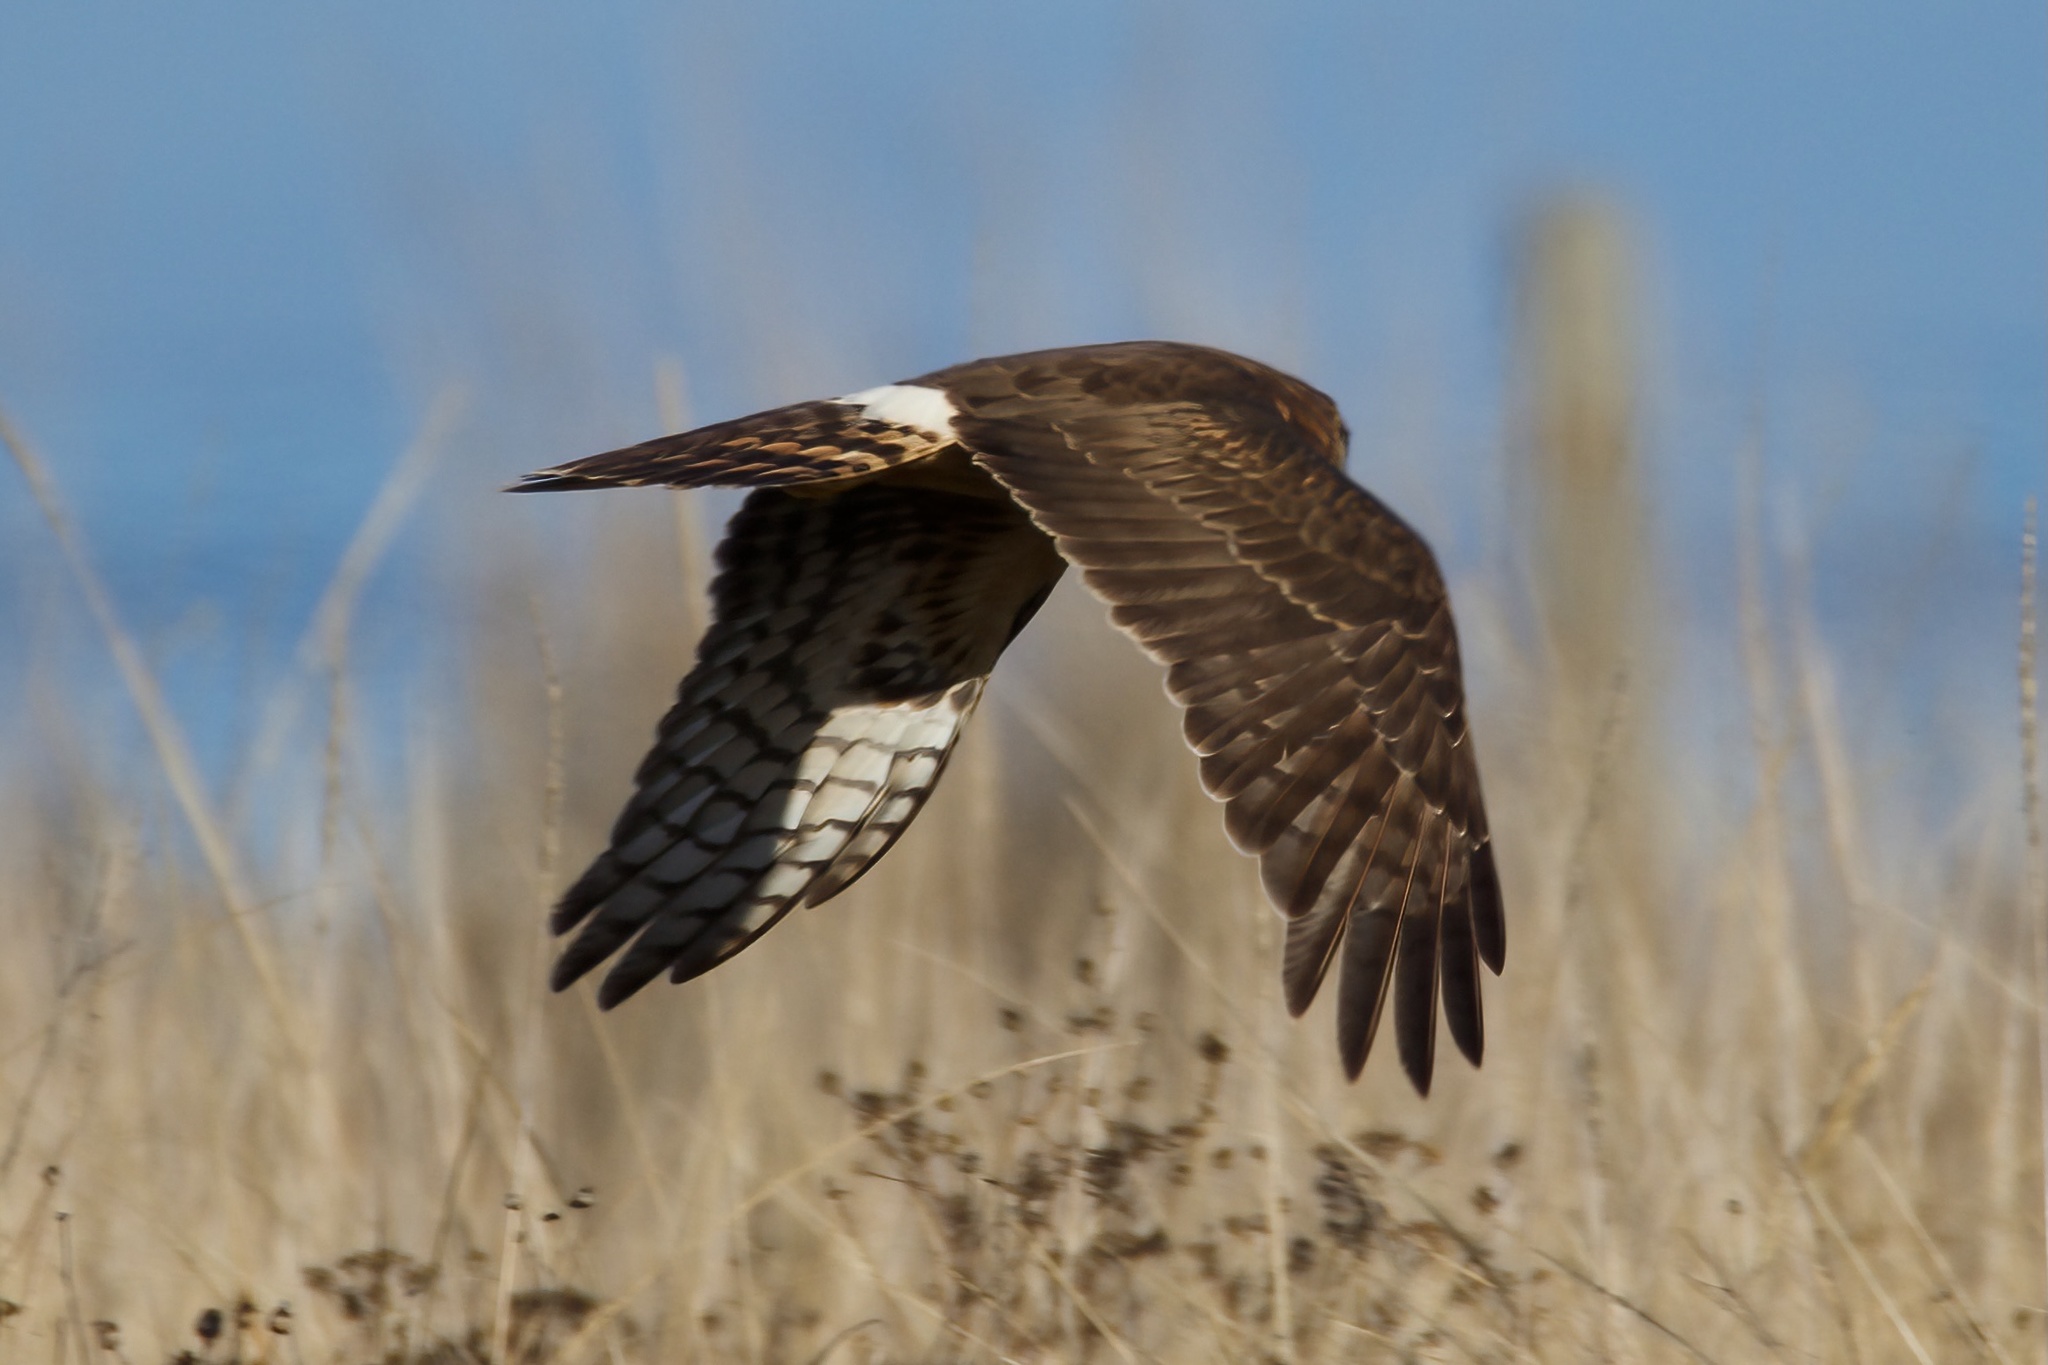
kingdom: Animalia
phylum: Chordata
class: Aves
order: Accipitriformes
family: Accipitridae
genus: Circus
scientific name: Circus cyaneus
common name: Hen harrier
